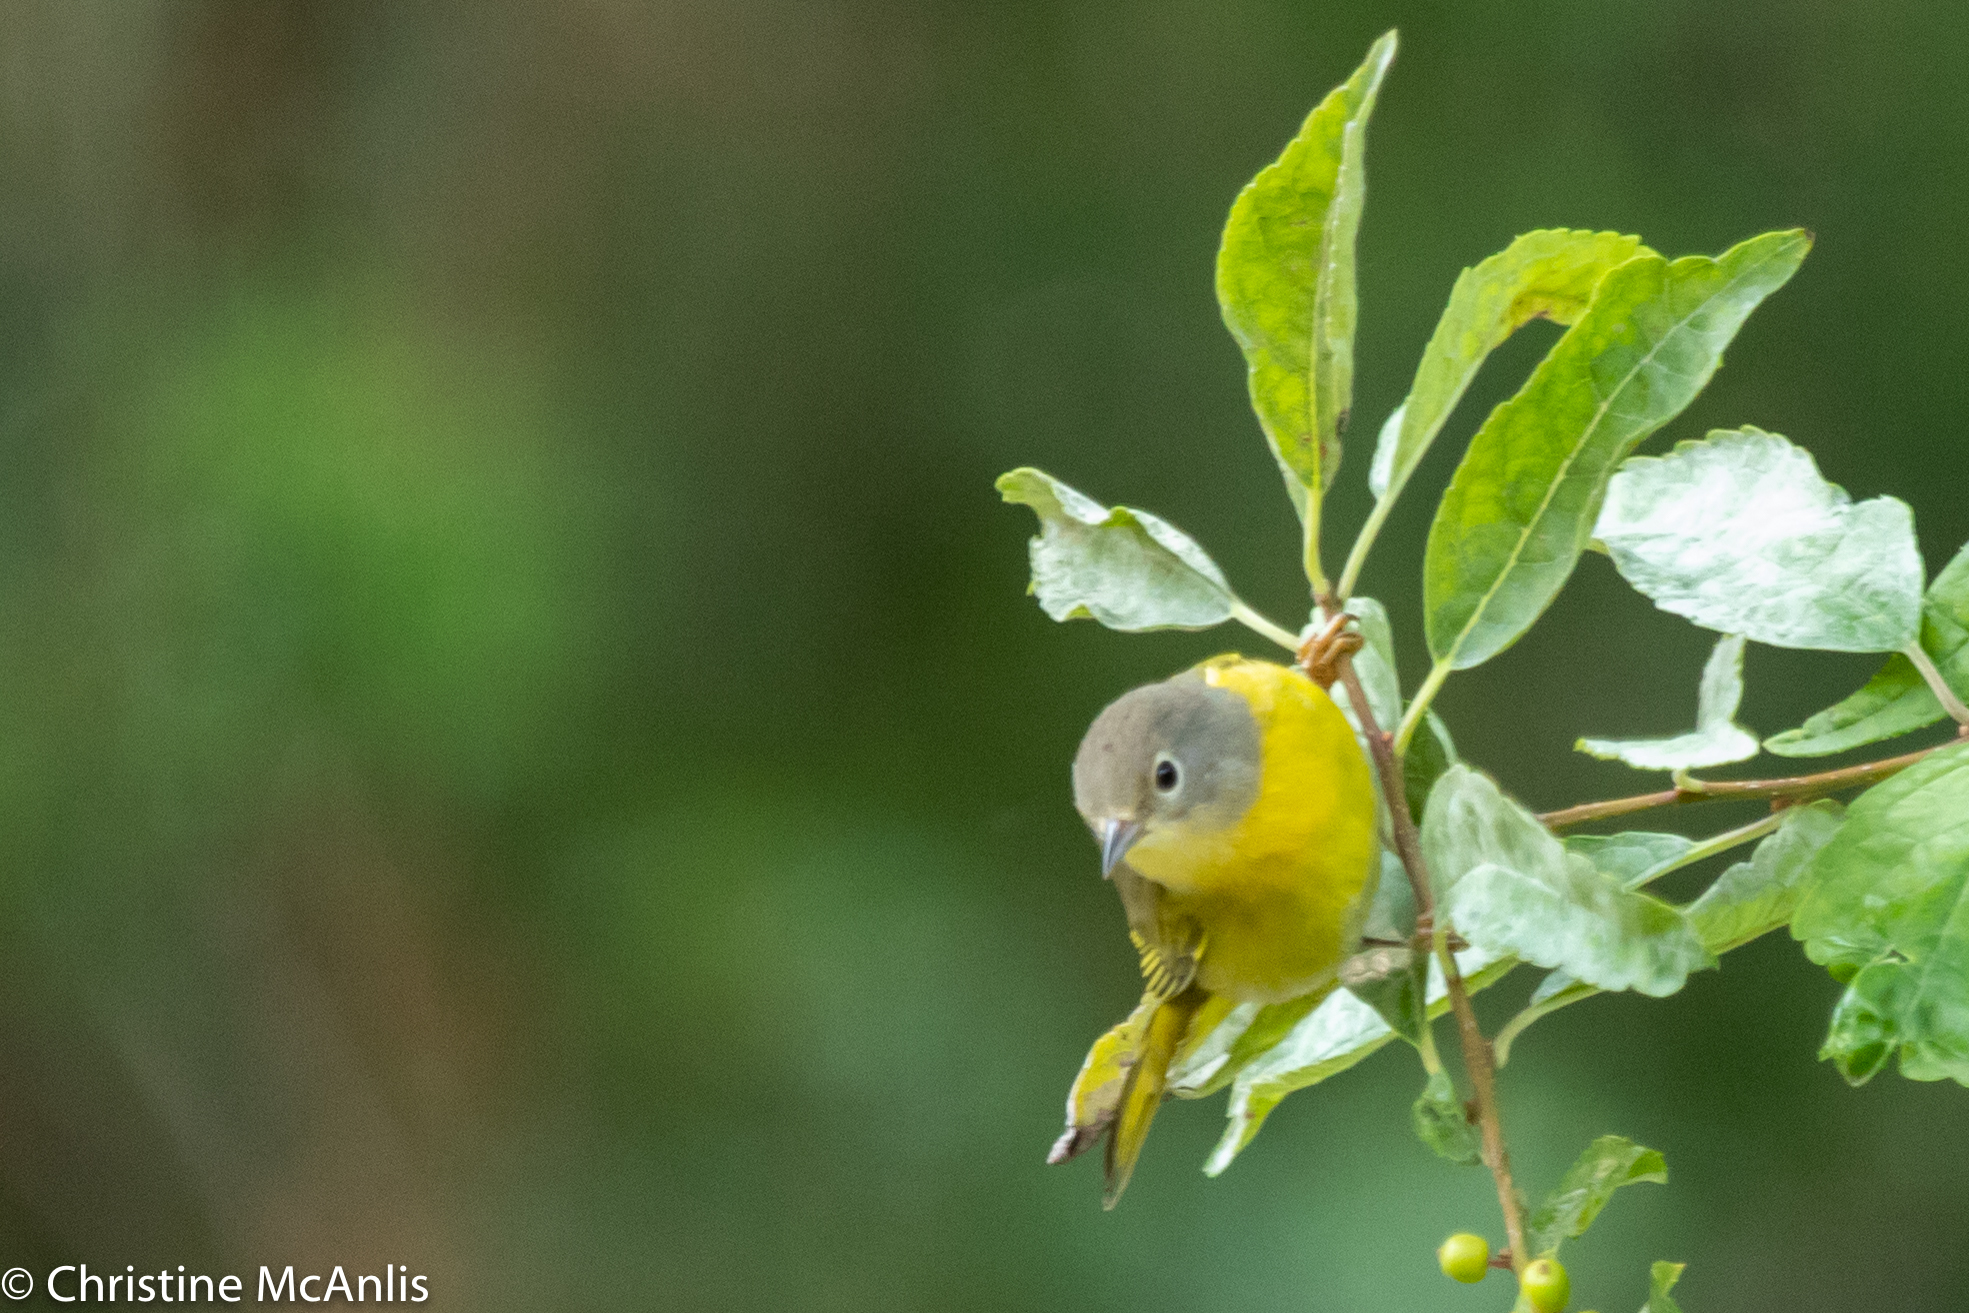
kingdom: Animalia
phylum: Chordata
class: Aves
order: Passeriformes
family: Parulidae
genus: Leiothlypis
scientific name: Leiothlypis ruficapilla
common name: Nashville warbler
